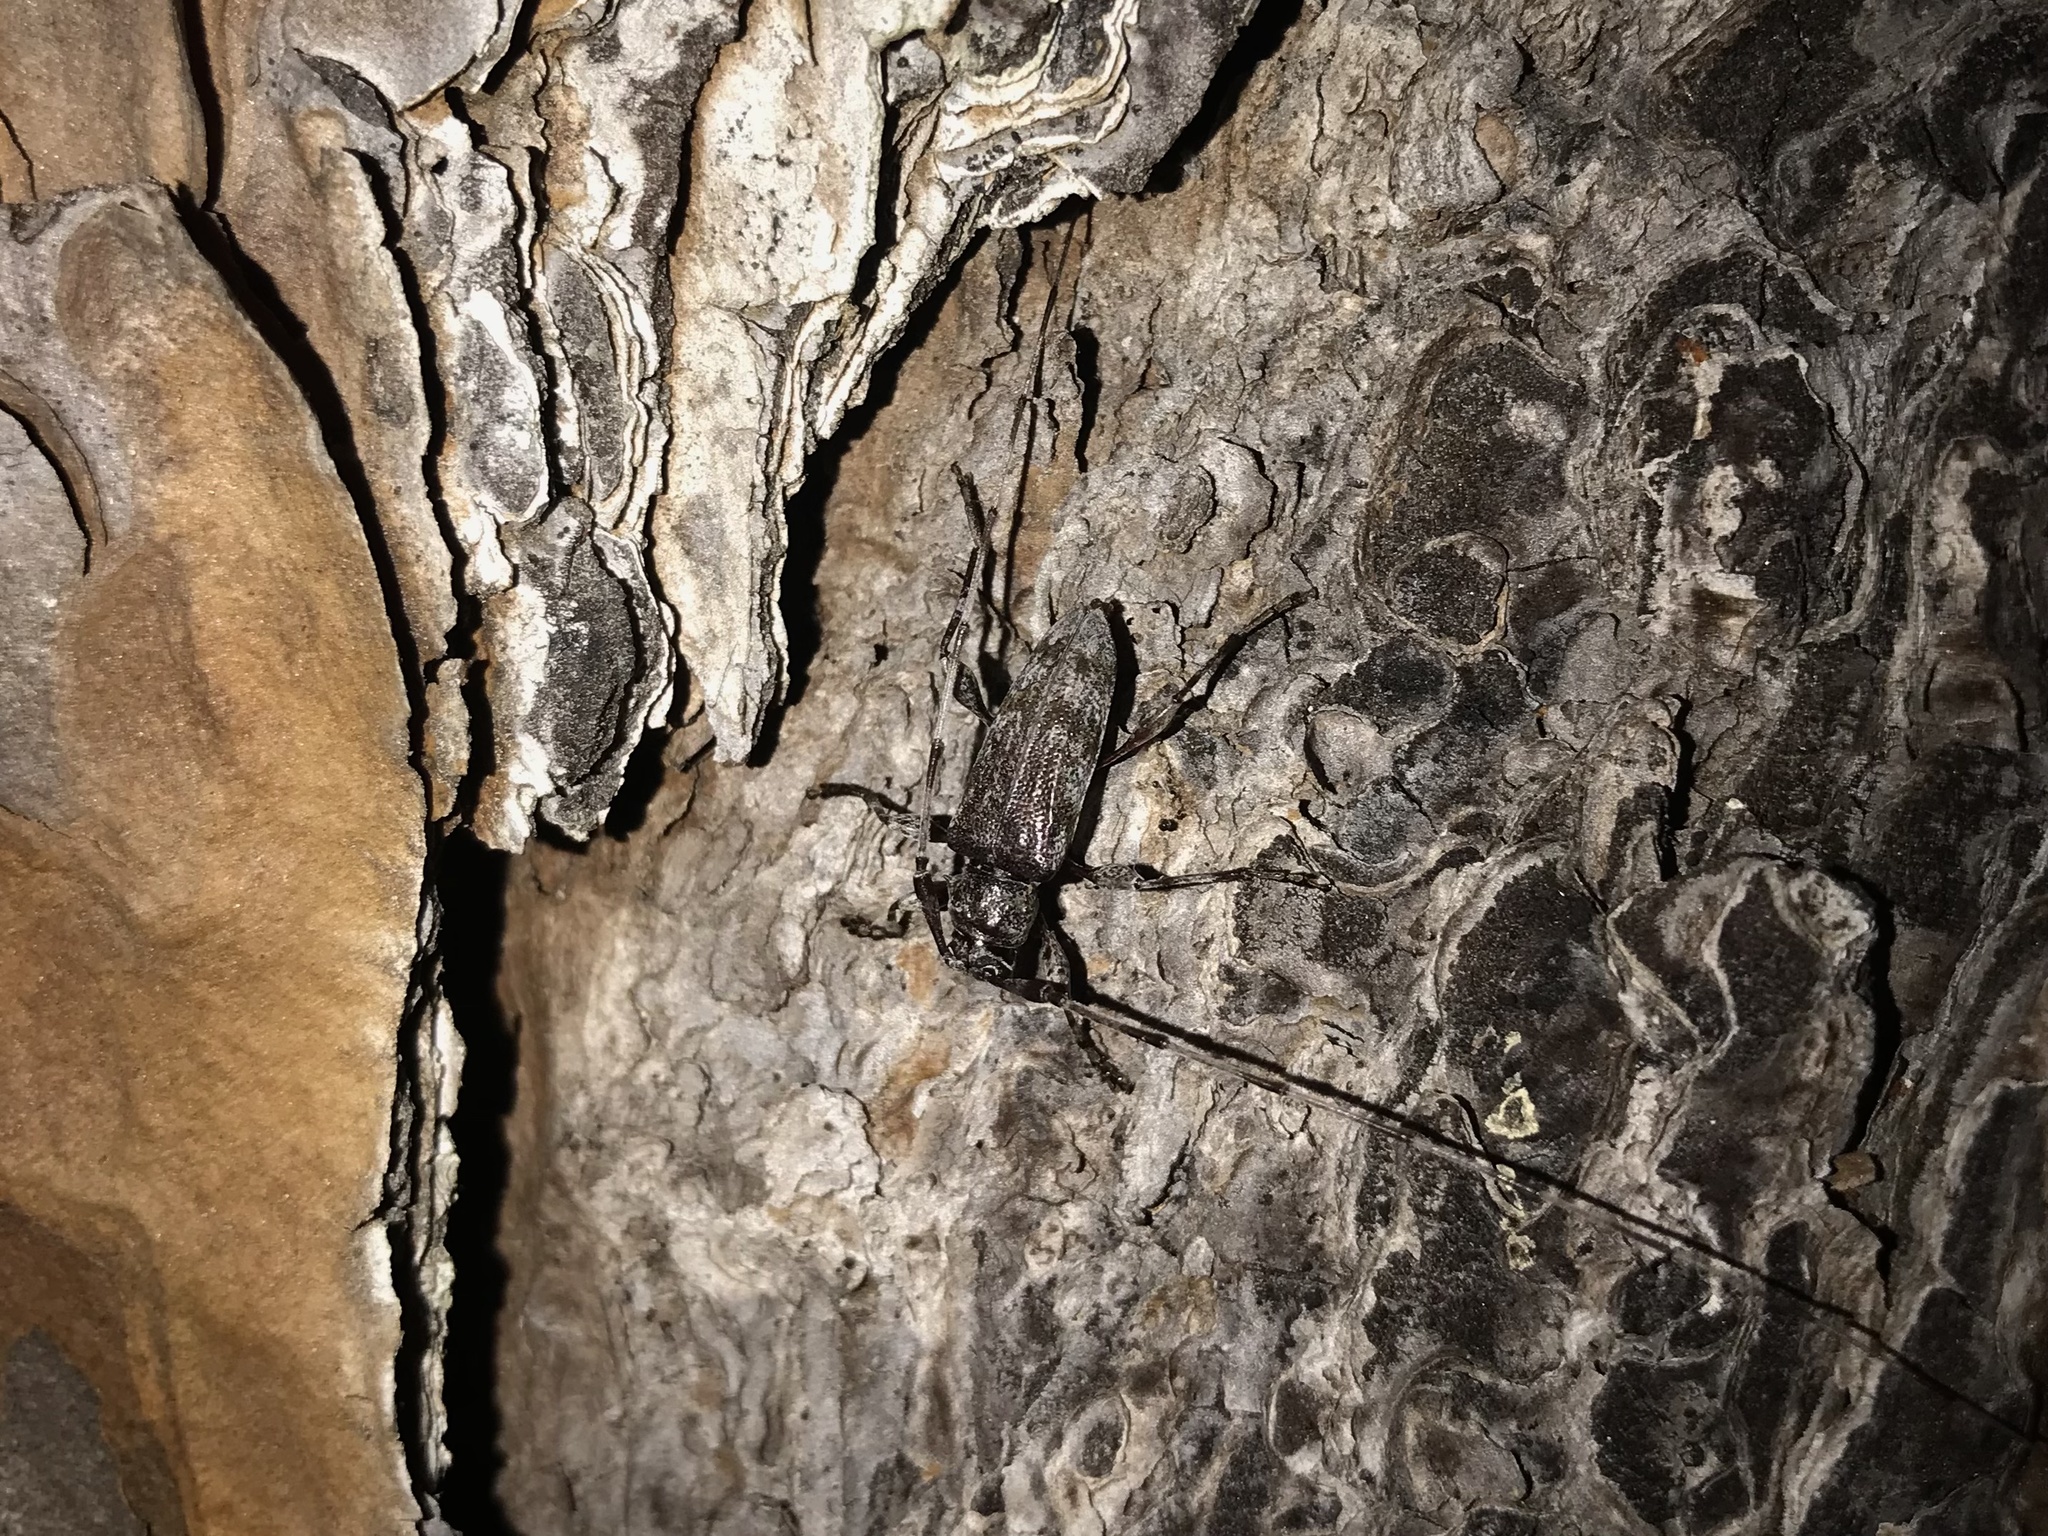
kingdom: Animalia
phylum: Arthropoda
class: Insecta
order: Coleoptera
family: Cerambycidae
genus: Acanthocinus
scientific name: Acanthocinus obsoletus
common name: Roundheaded borer
